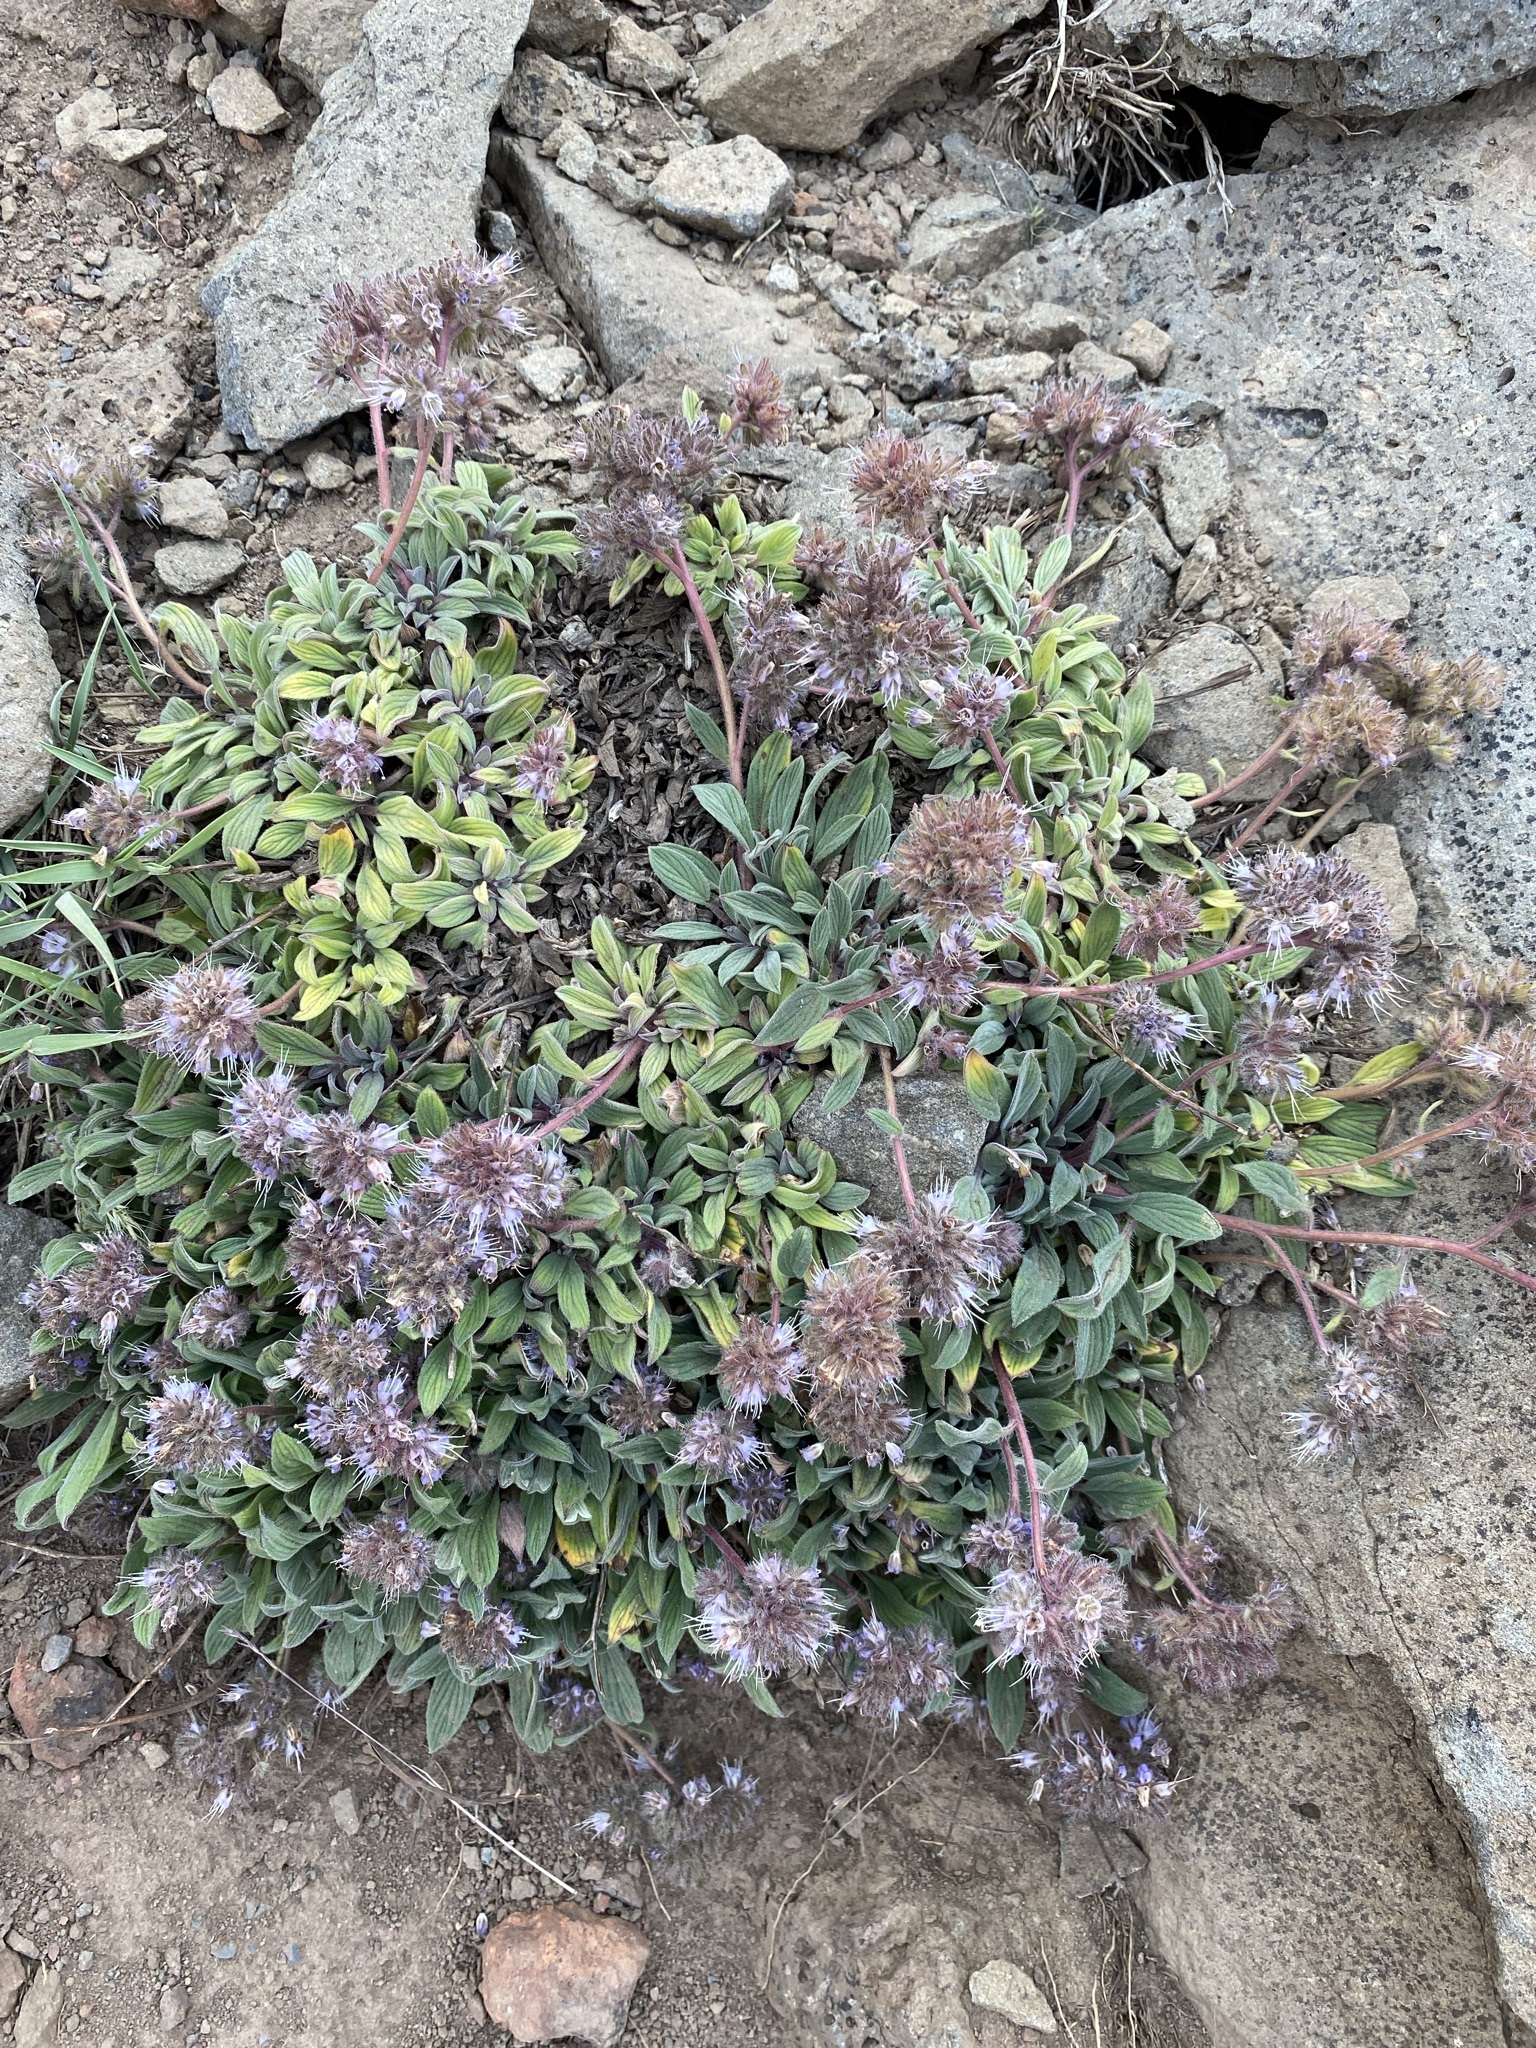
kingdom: Plantae
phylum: Tracheophyta
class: Magnoliopsida
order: Boraginales
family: Hydrophyllaceae
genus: Phacelia
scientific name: Phacelia hastata
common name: Silver-leaved phacelia
